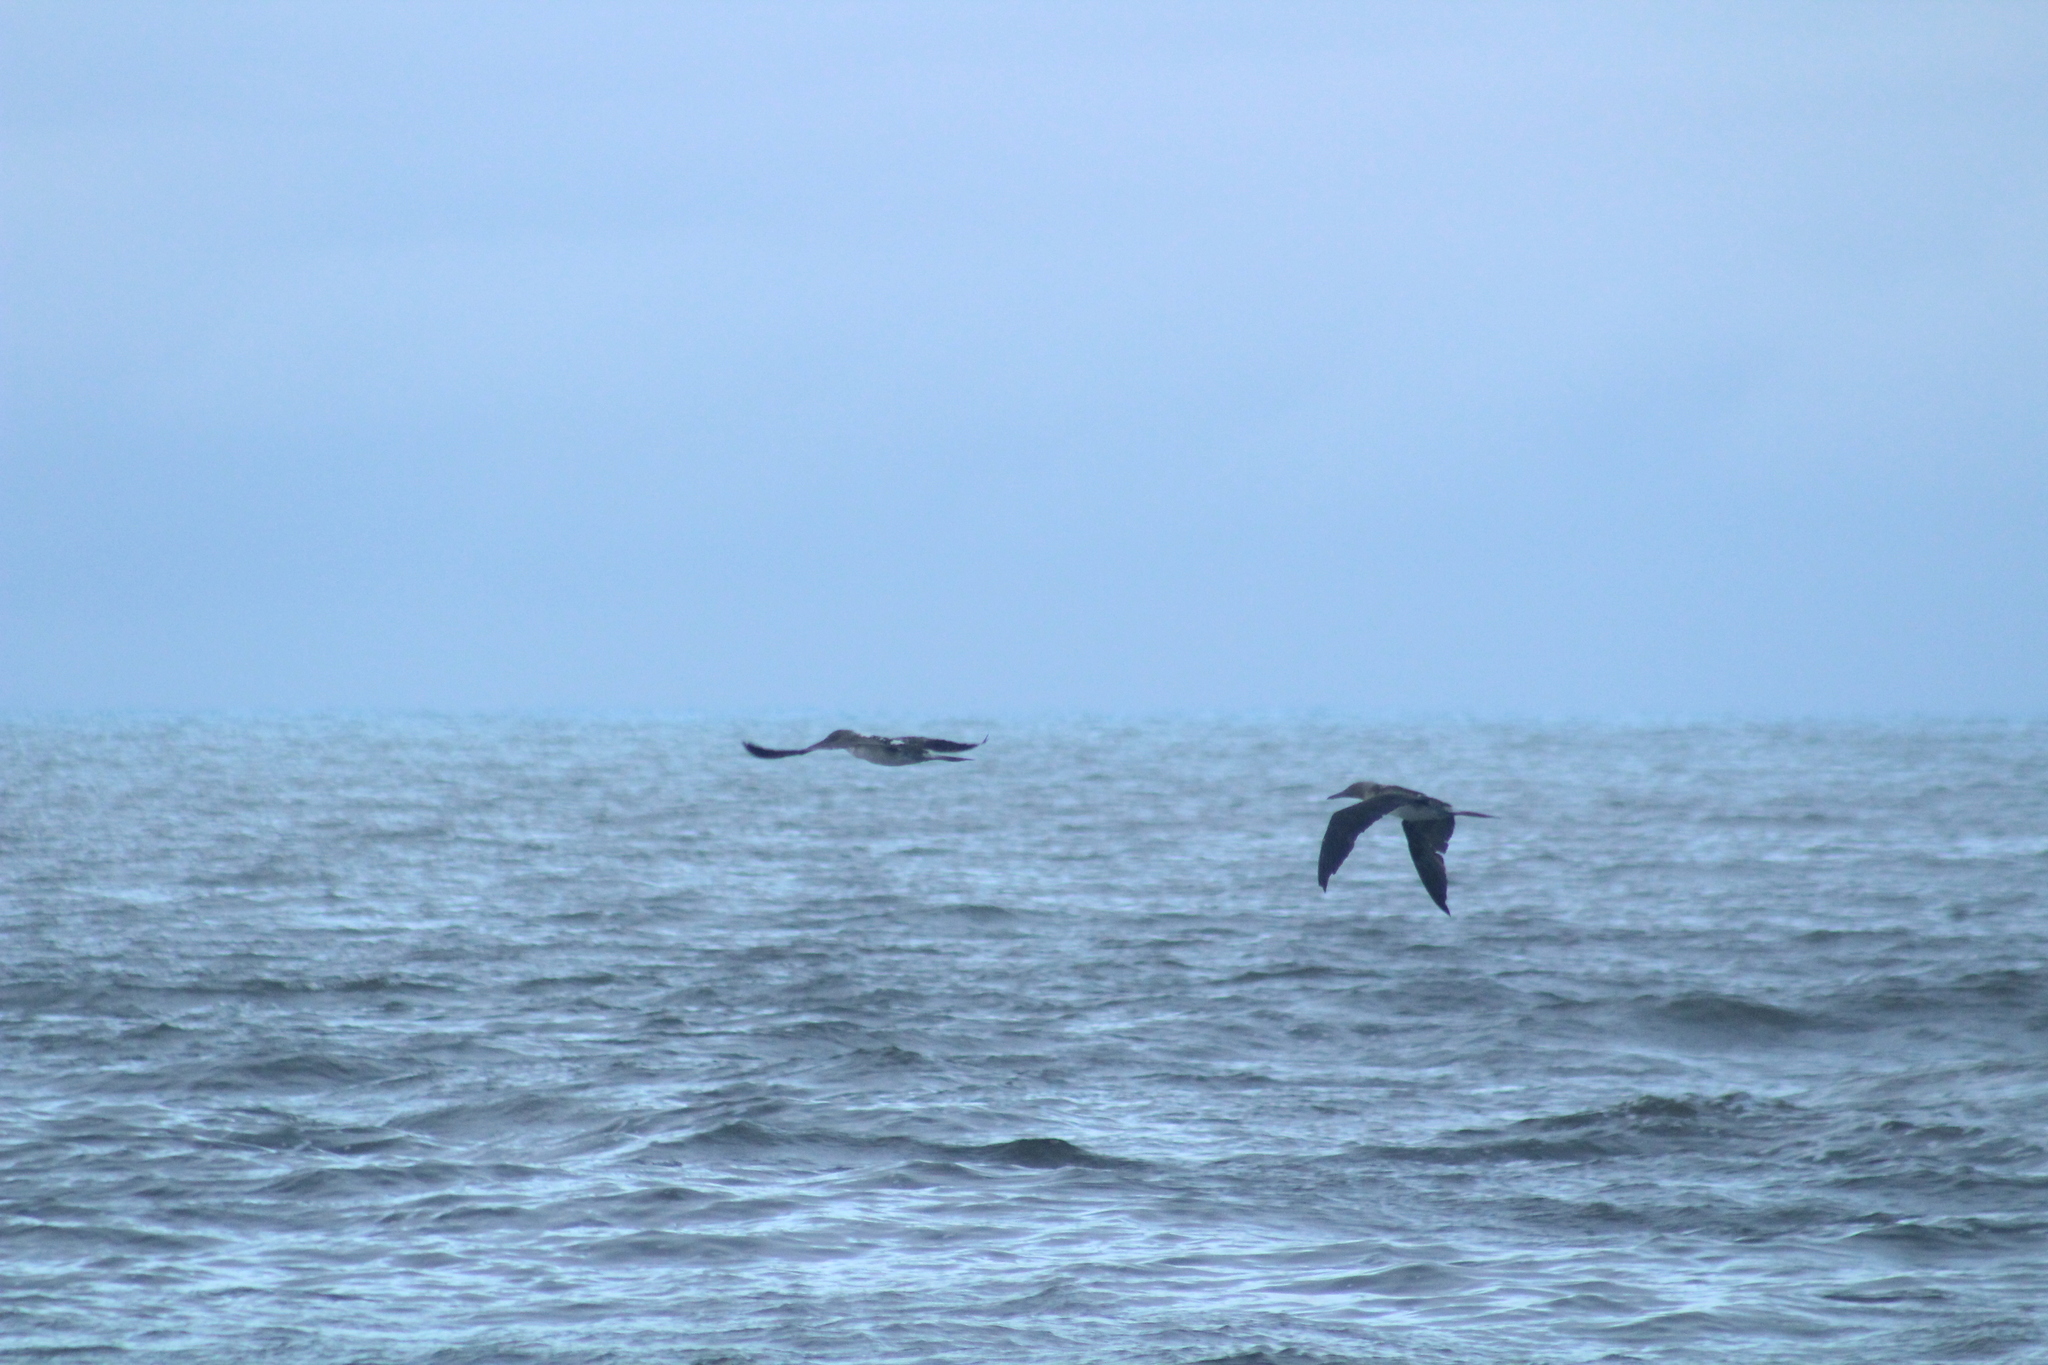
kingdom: Animalia
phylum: Chordata
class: Aves
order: Suliformes
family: Sulidae
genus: Sula
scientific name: Sula nebouxii
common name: Blue-footed booby
